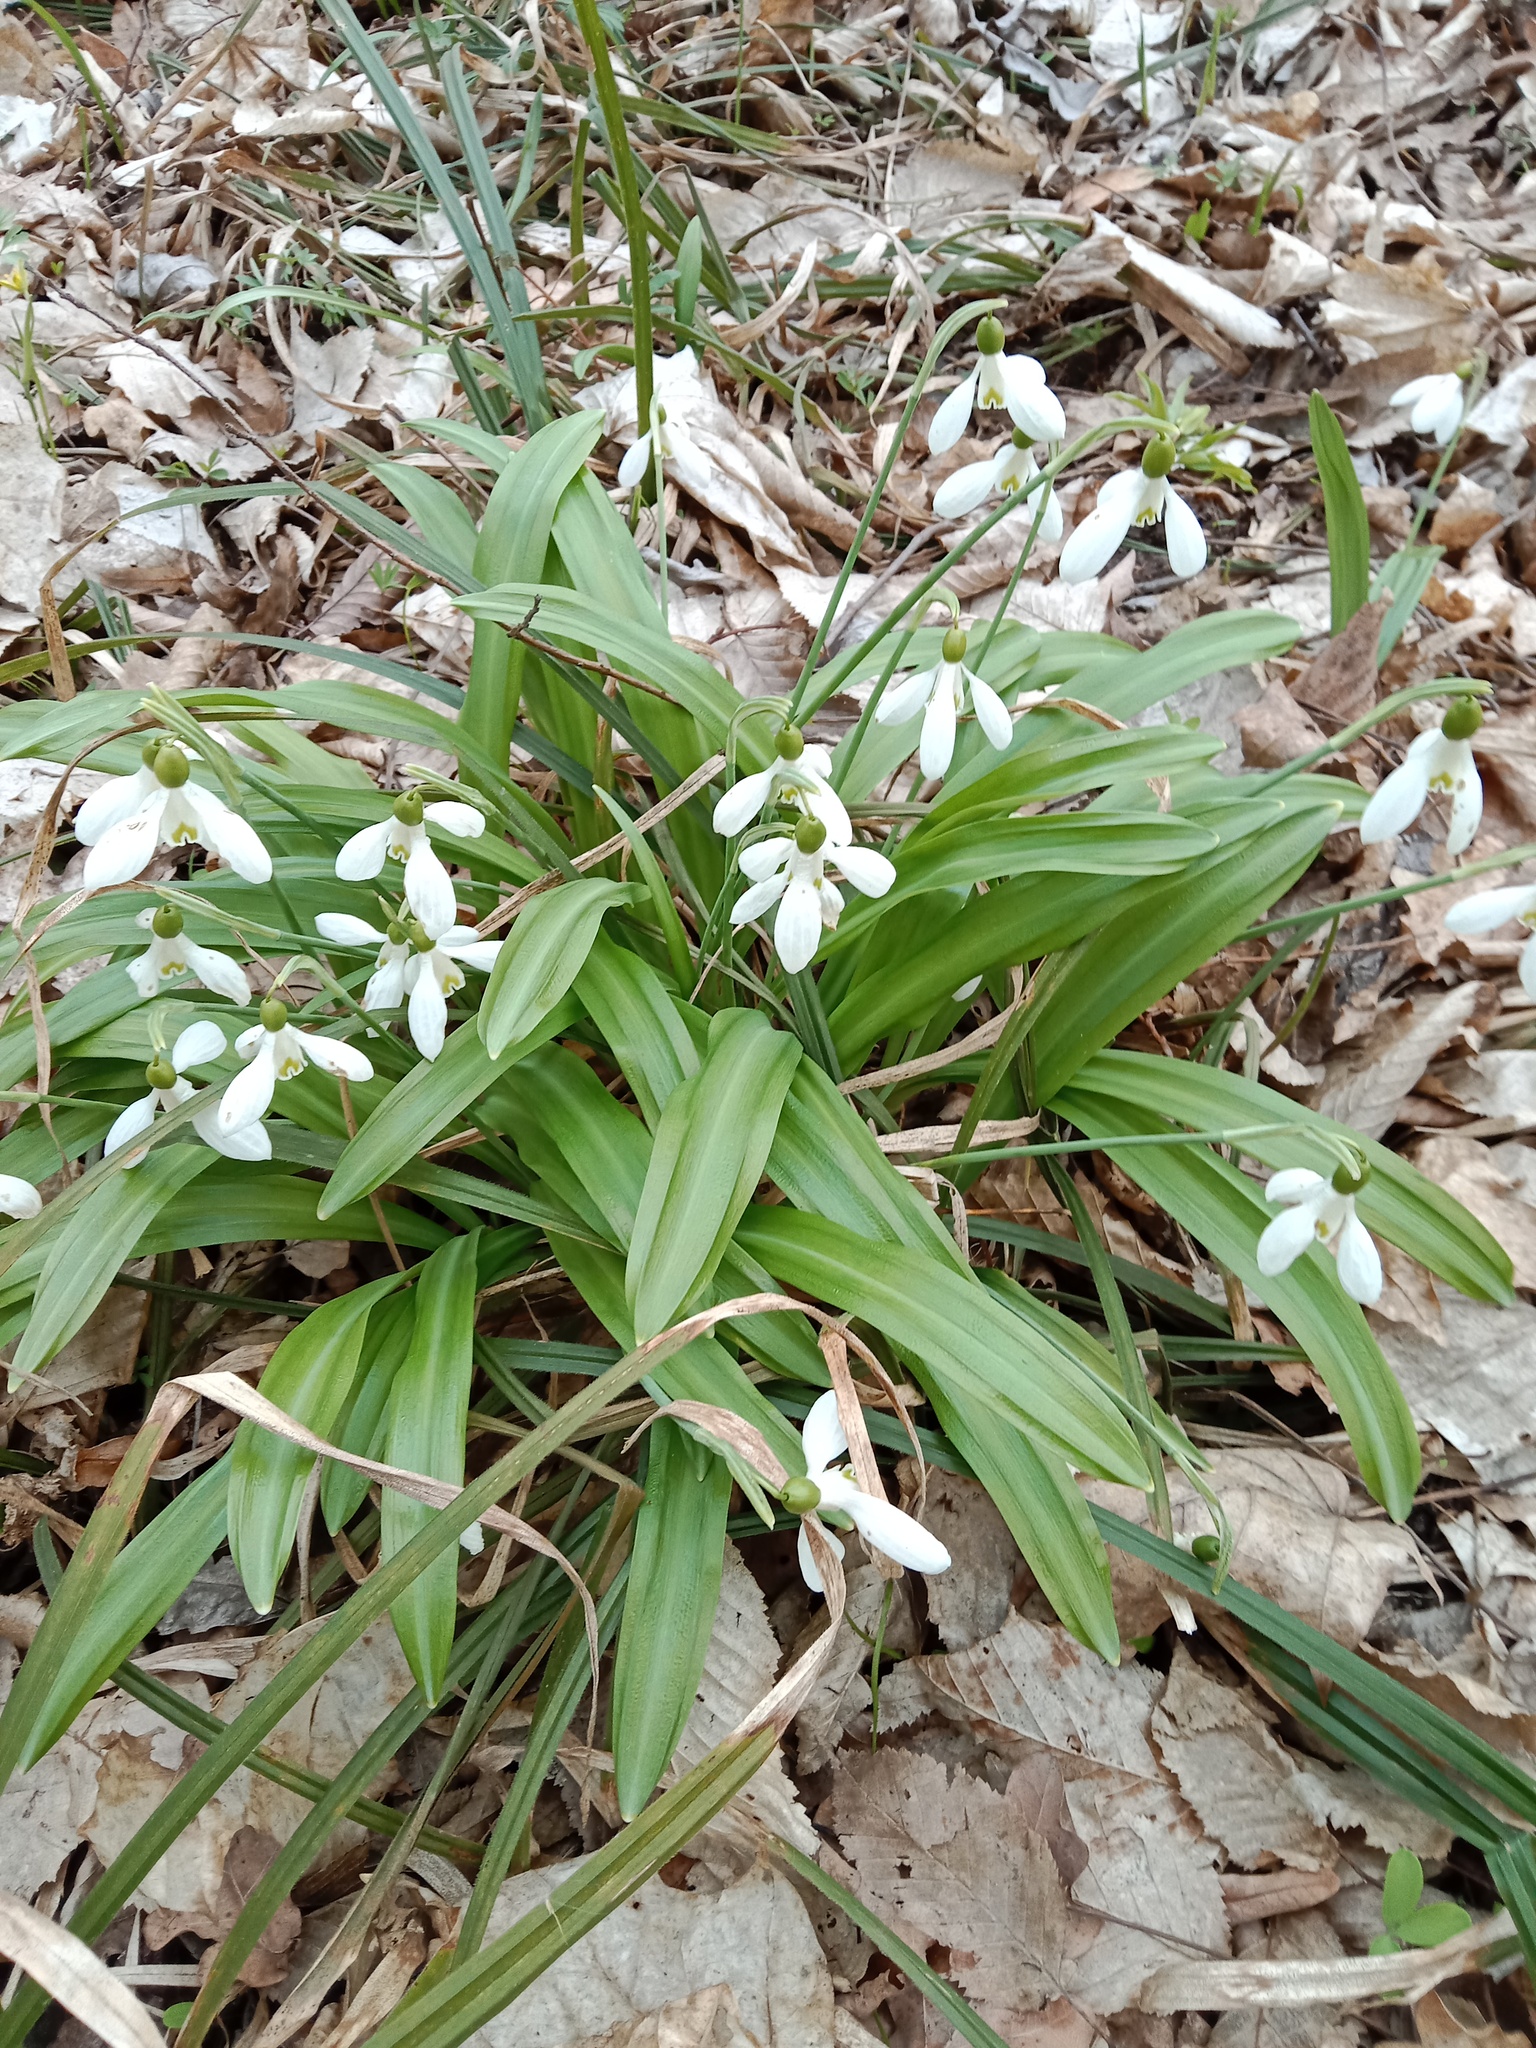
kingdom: Plantae
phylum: Tracheophyta
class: Liliopsida
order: Asparagales
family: Amaryllidaceae
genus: Galanthus
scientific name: Galanthus plicatus
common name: Pleated snowdrop
